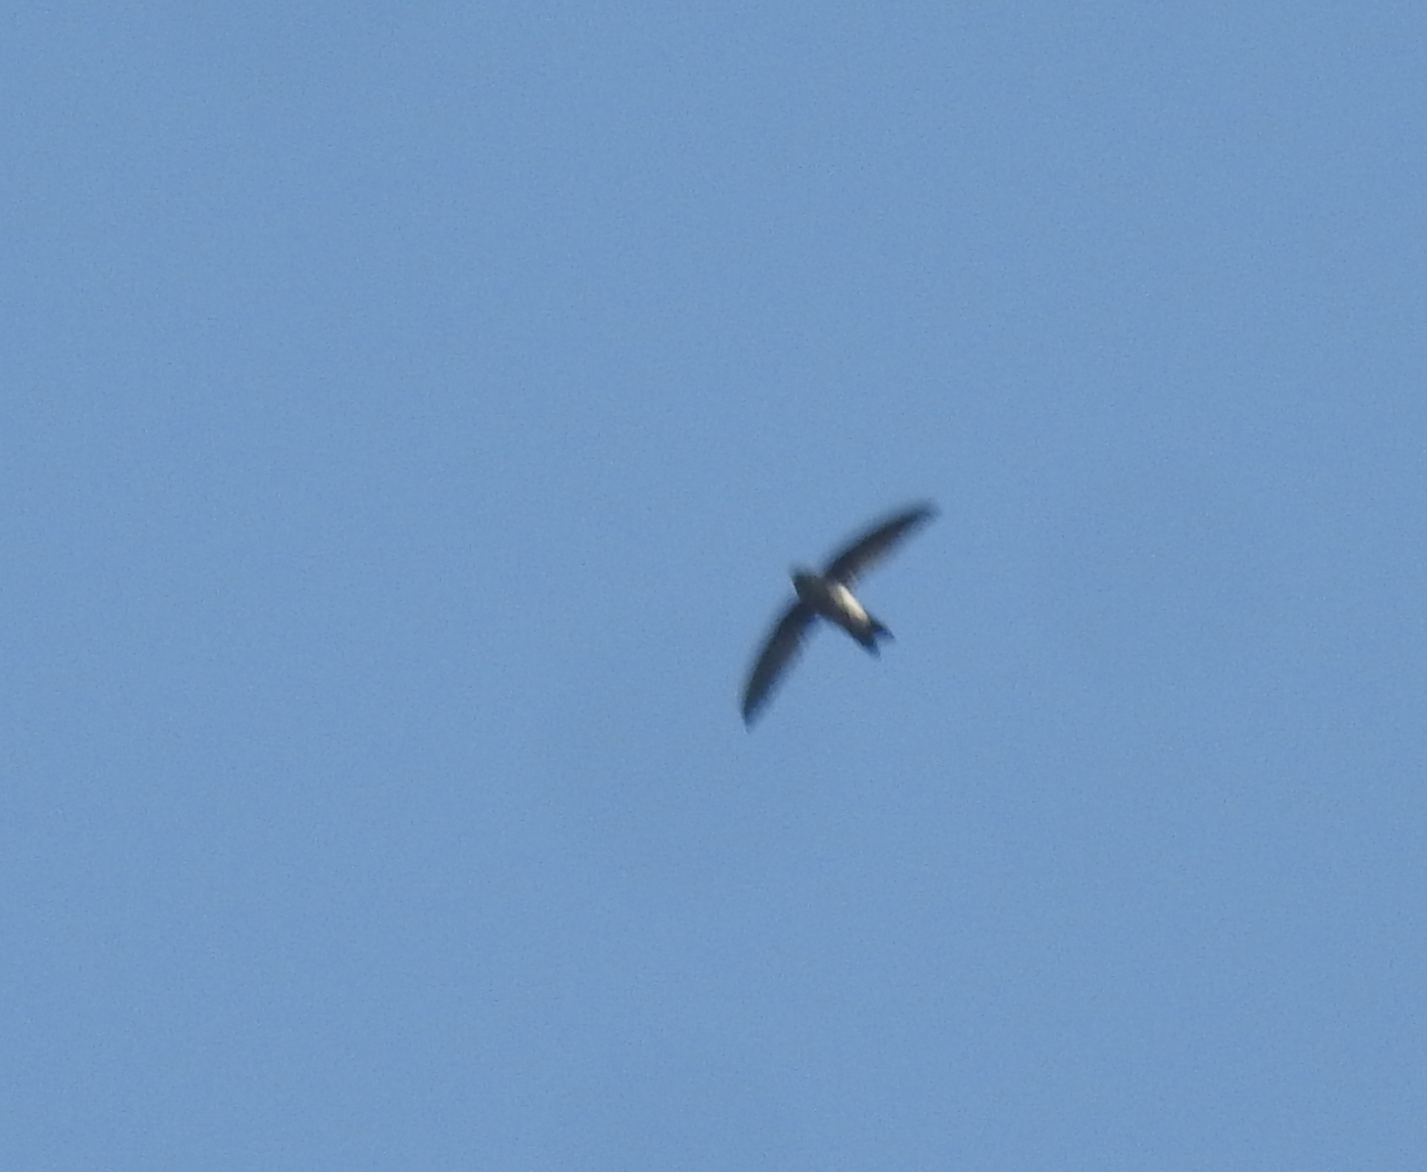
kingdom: Animalia
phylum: Chordata
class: Aves
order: Apodiformes
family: Apodidae
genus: Tachymarptis
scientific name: Tachymarptis melba
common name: Alpine swift
